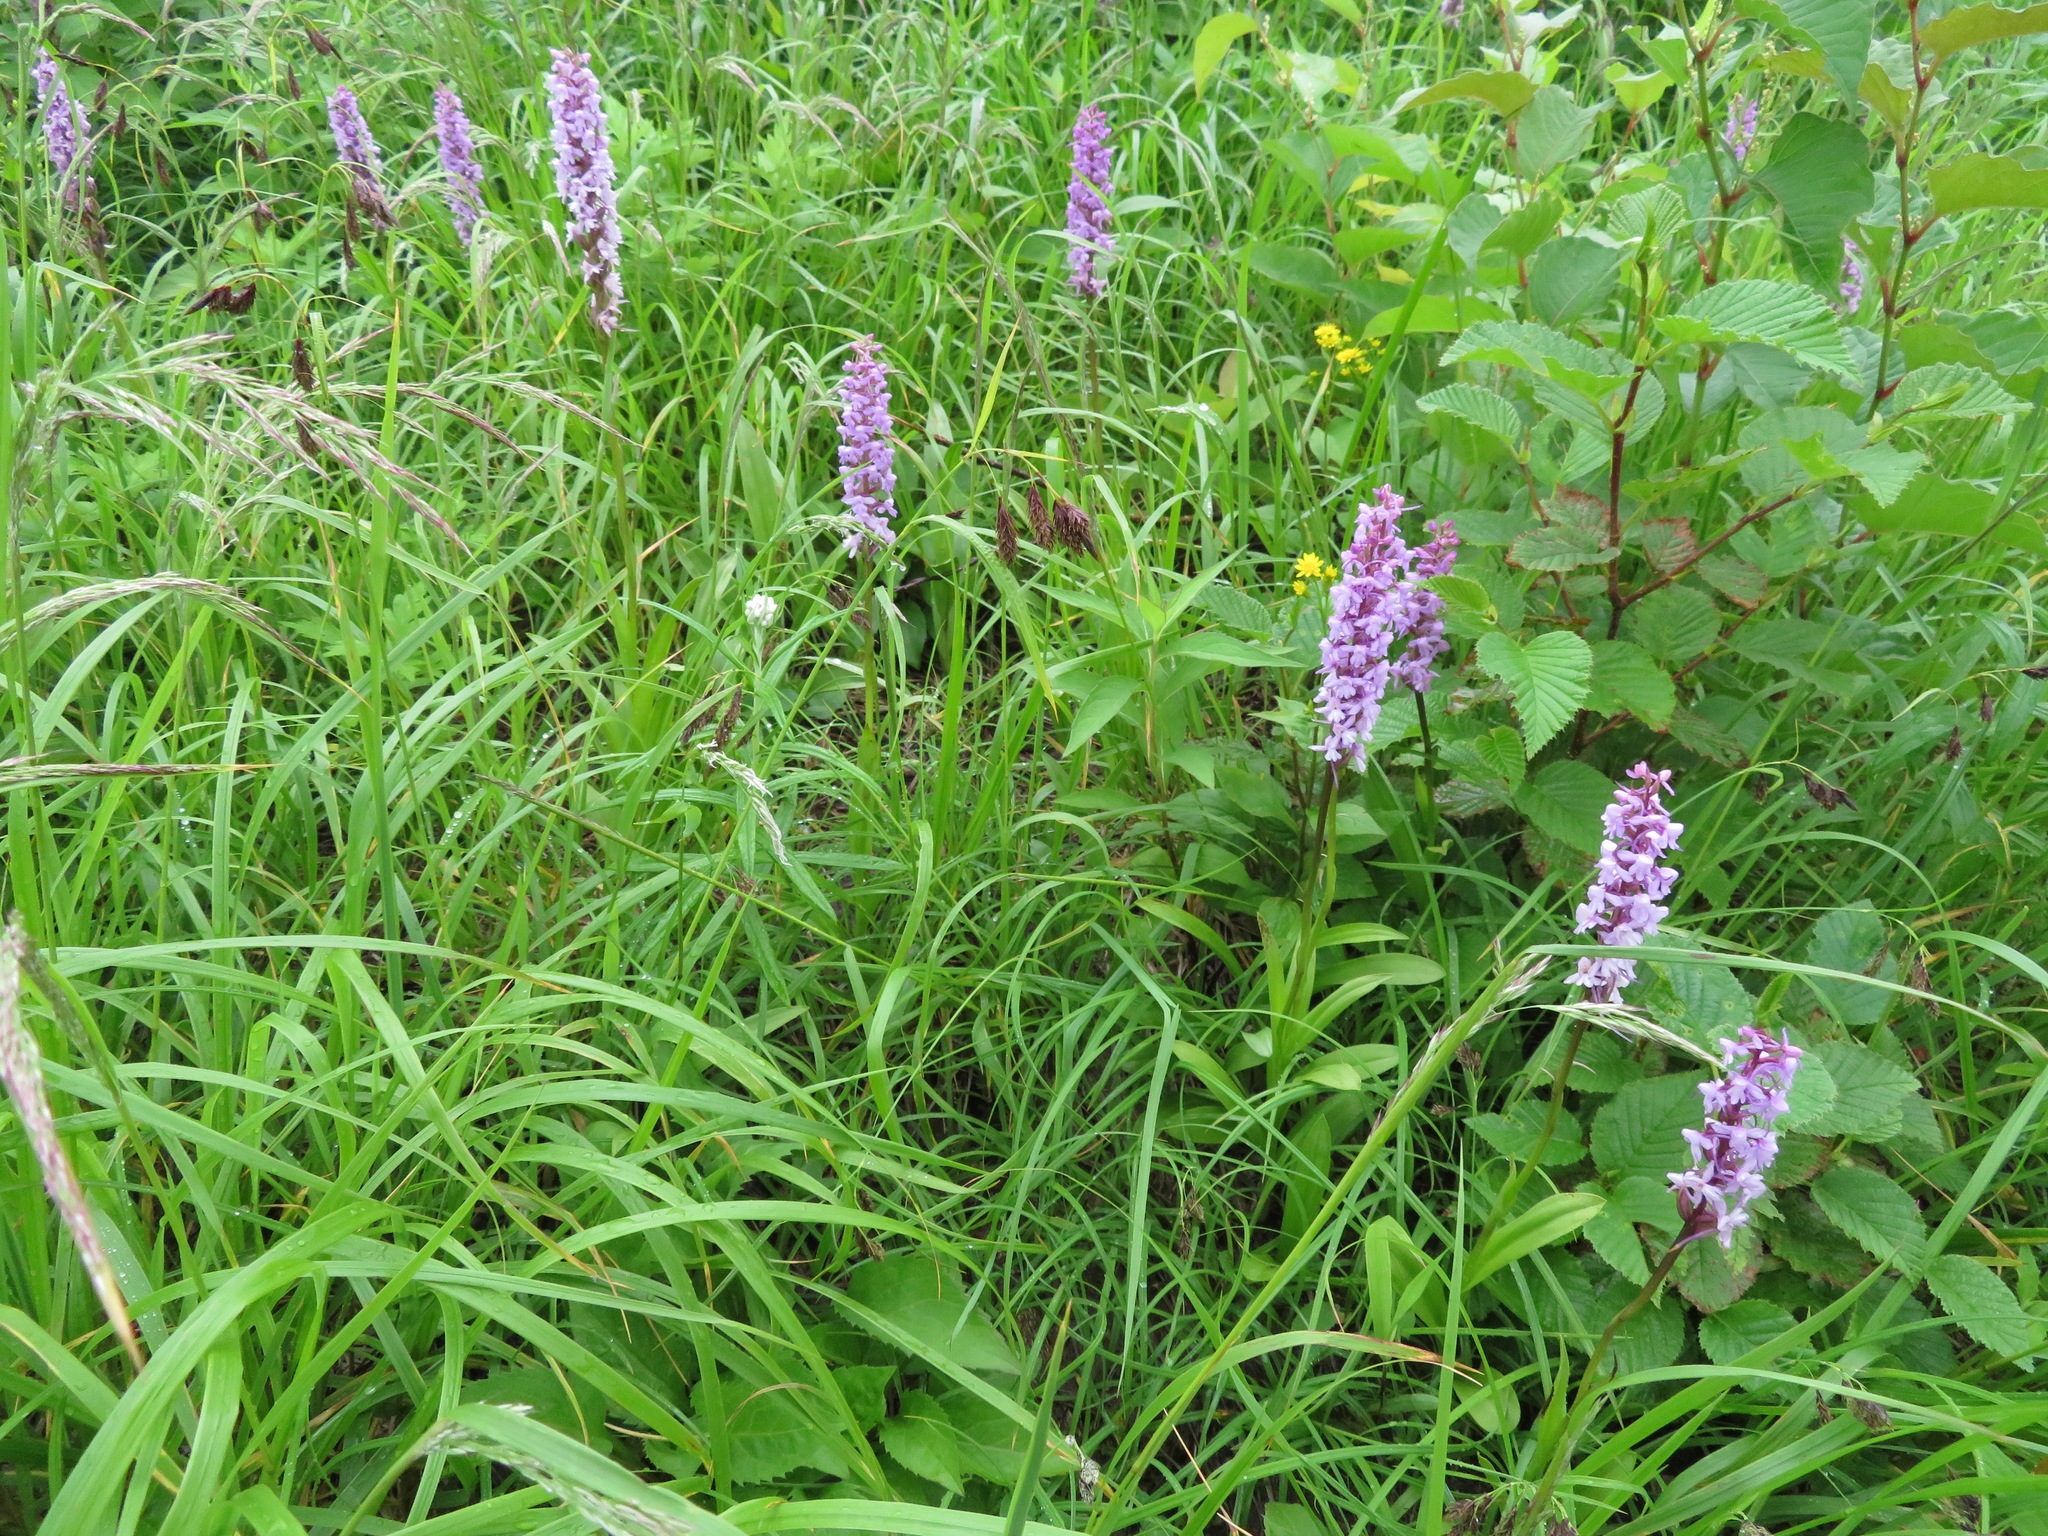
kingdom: Plantae
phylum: Tracheophyta
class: Liliopsida
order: Asparagales
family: Orchidaceae
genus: Gymnadenia
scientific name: Gymnadenia conopsea
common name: Fragrant orchid
